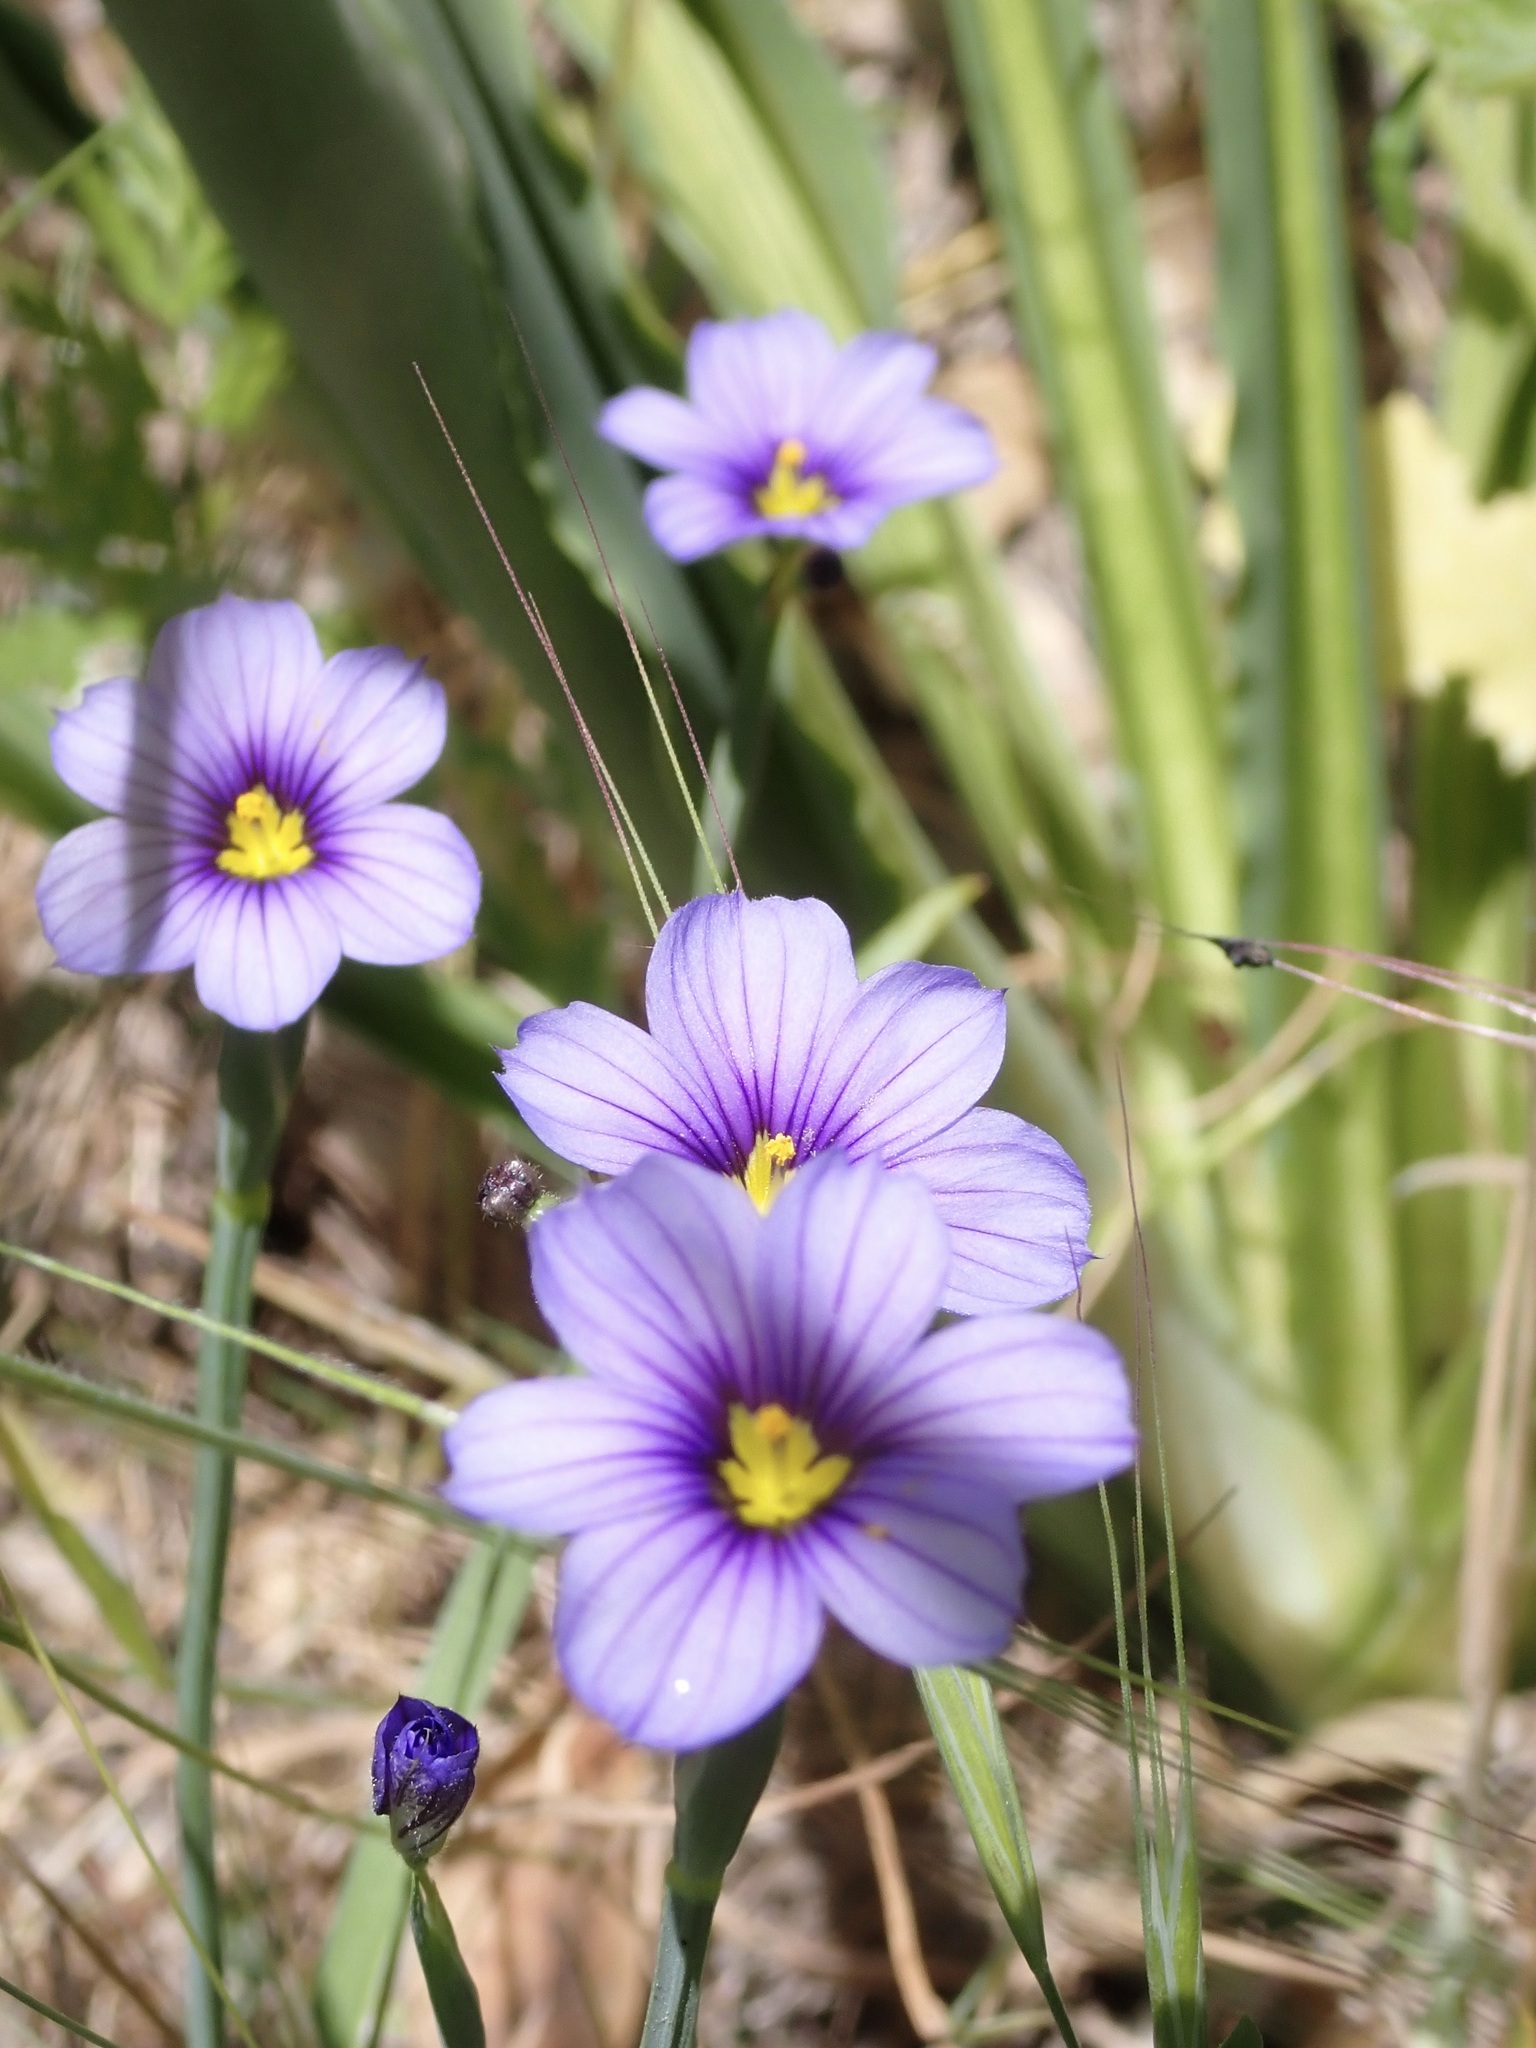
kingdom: Plantae
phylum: Tracheophyta
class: Liliopsida
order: Asparagales
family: Iridaceae
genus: Sisyrinchium
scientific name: Sisyrinchium bellum
